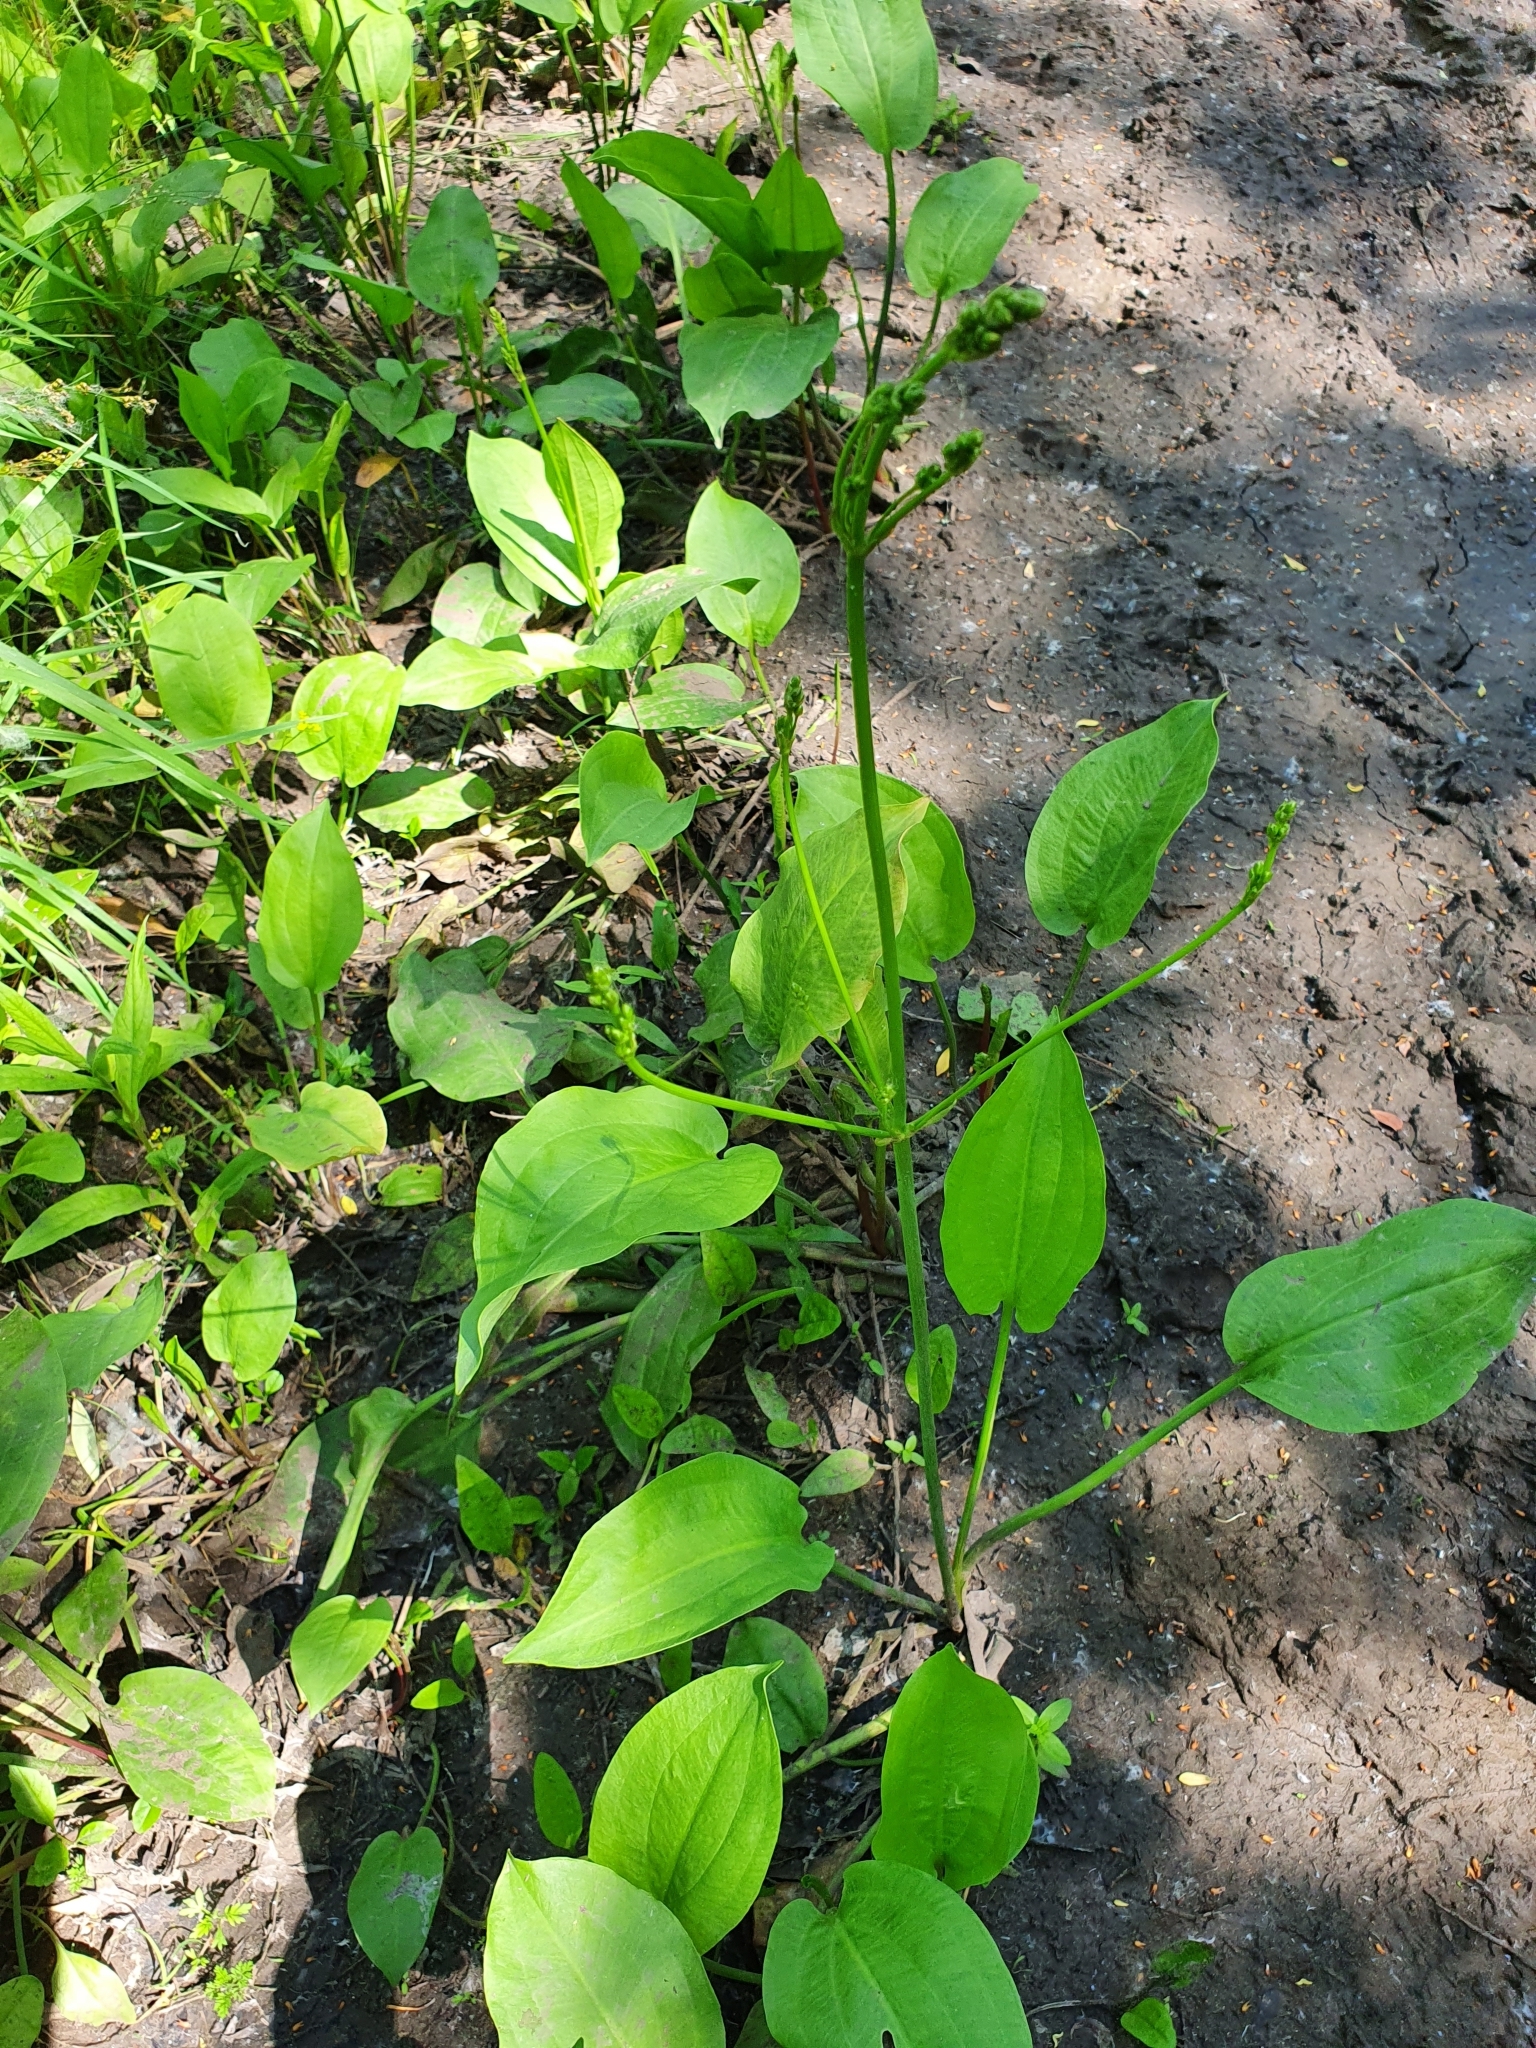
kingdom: Plantae
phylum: Tracheophyta
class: Liliopsida
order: Alismatales
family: Alismataceae
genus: Alisma
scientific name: Alisma plantago-aquatica
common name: Water-plantain
